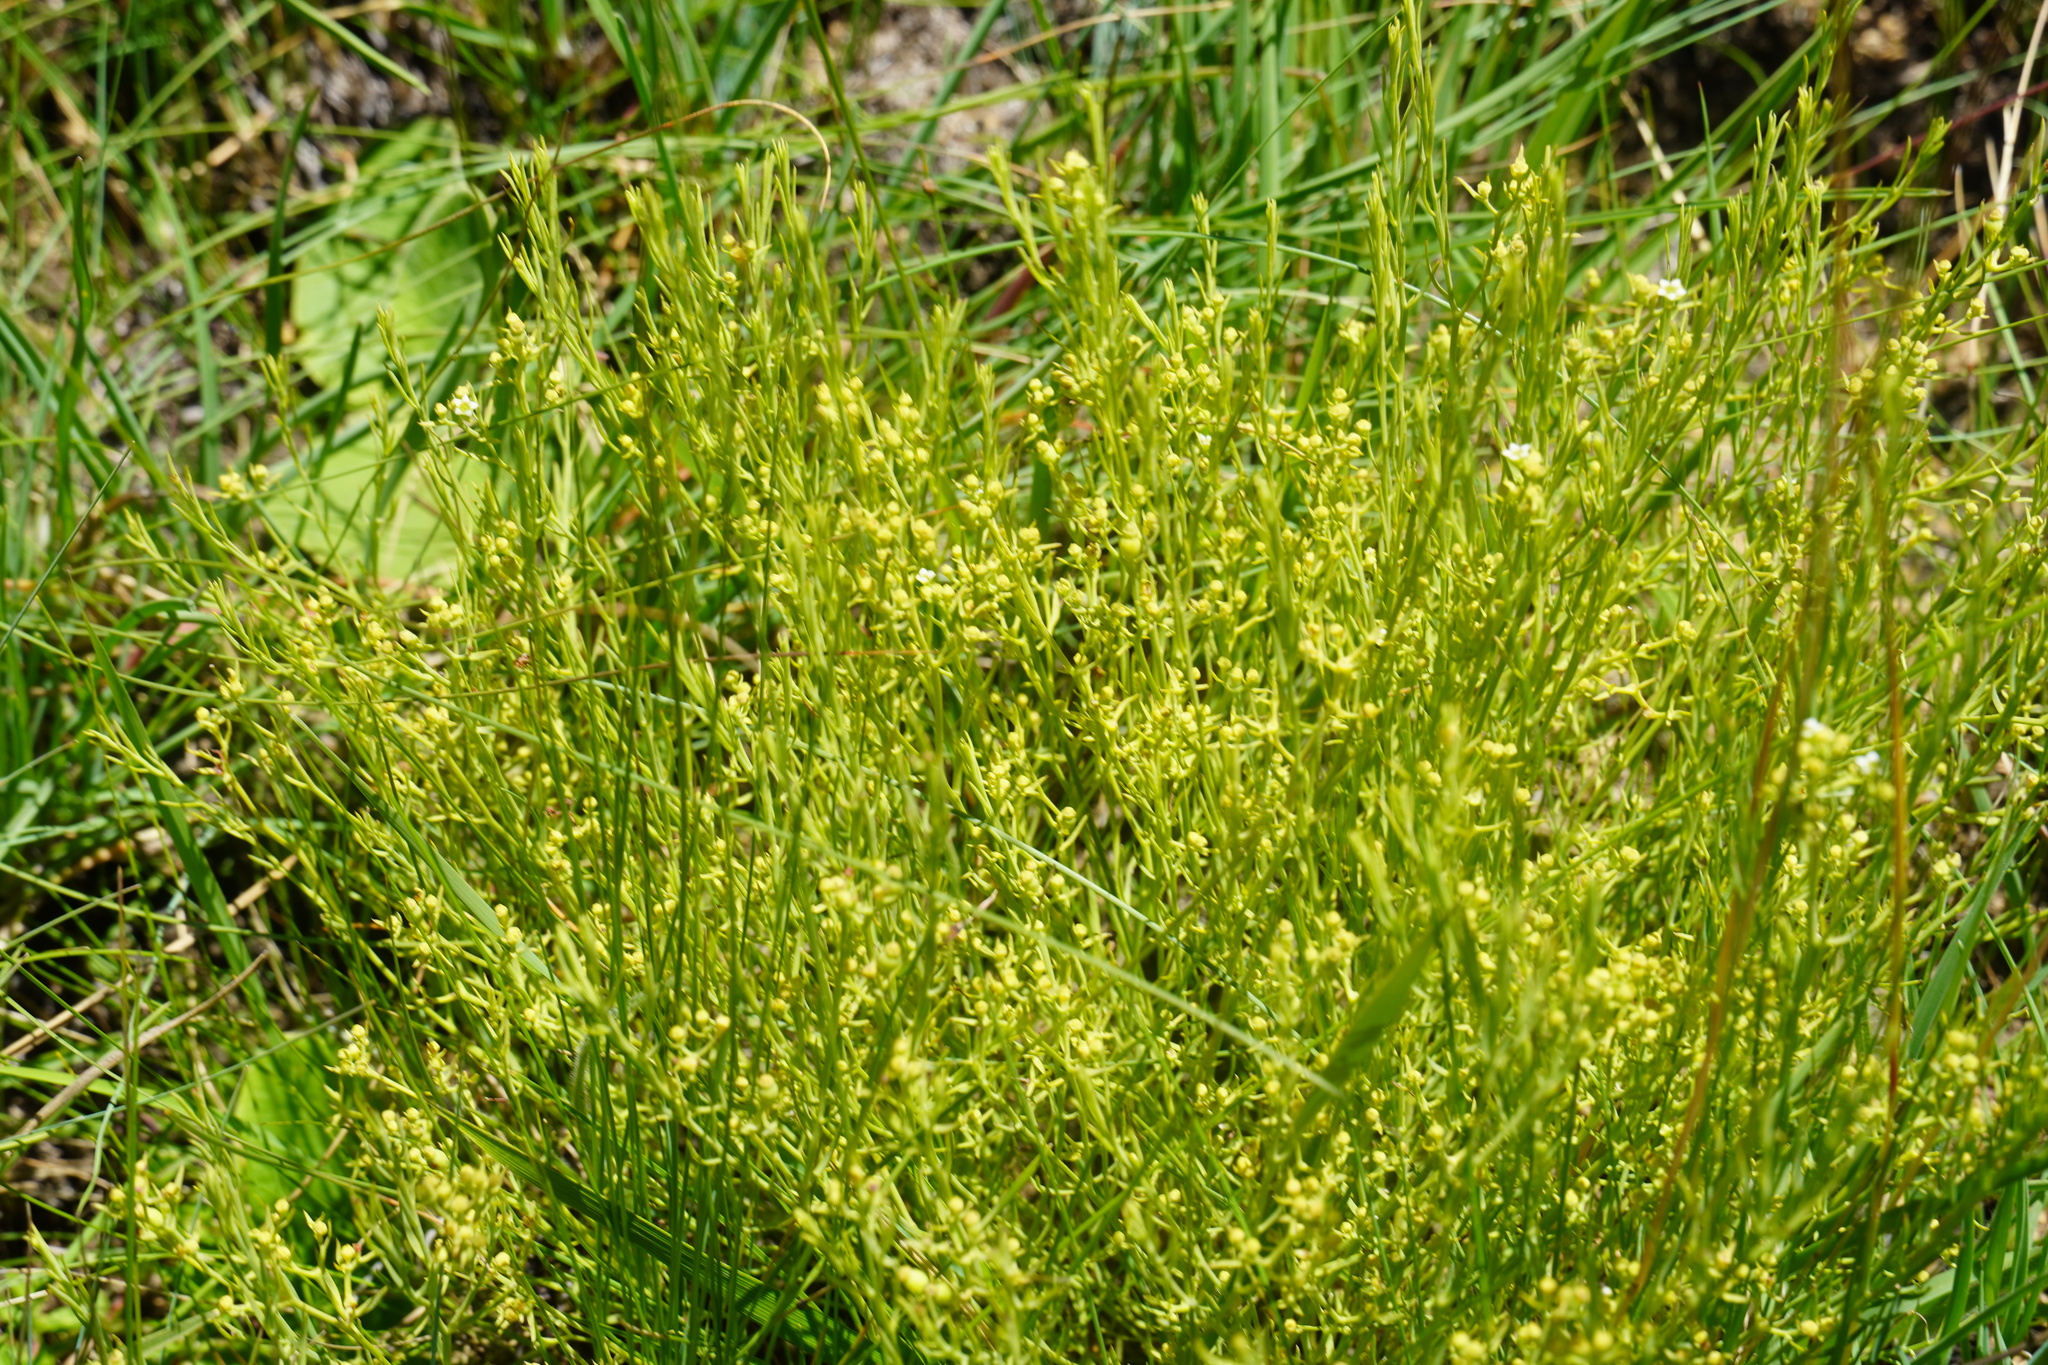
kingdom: Plantae
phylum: Tracheophyta
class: Magnoliopsida
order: Santalales
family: Thesiaceae
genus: Thesium
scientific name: Thesium pallidum
